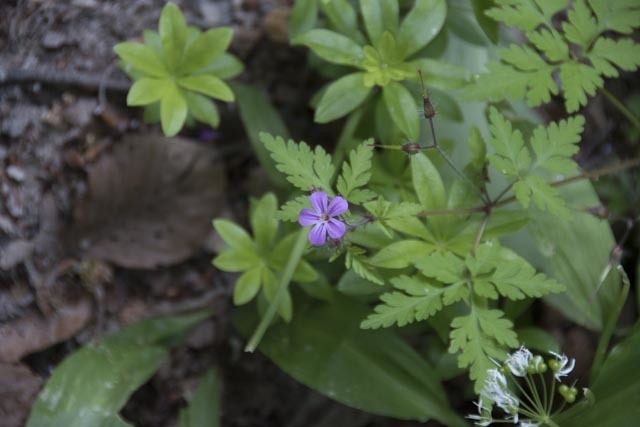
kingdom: Plantae
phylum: Tracheophyta
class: Magnoliopsida
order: Geraniales
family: Geraniaceae
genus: Geranium
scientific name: Geranium robertianum
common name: Herb-robert
